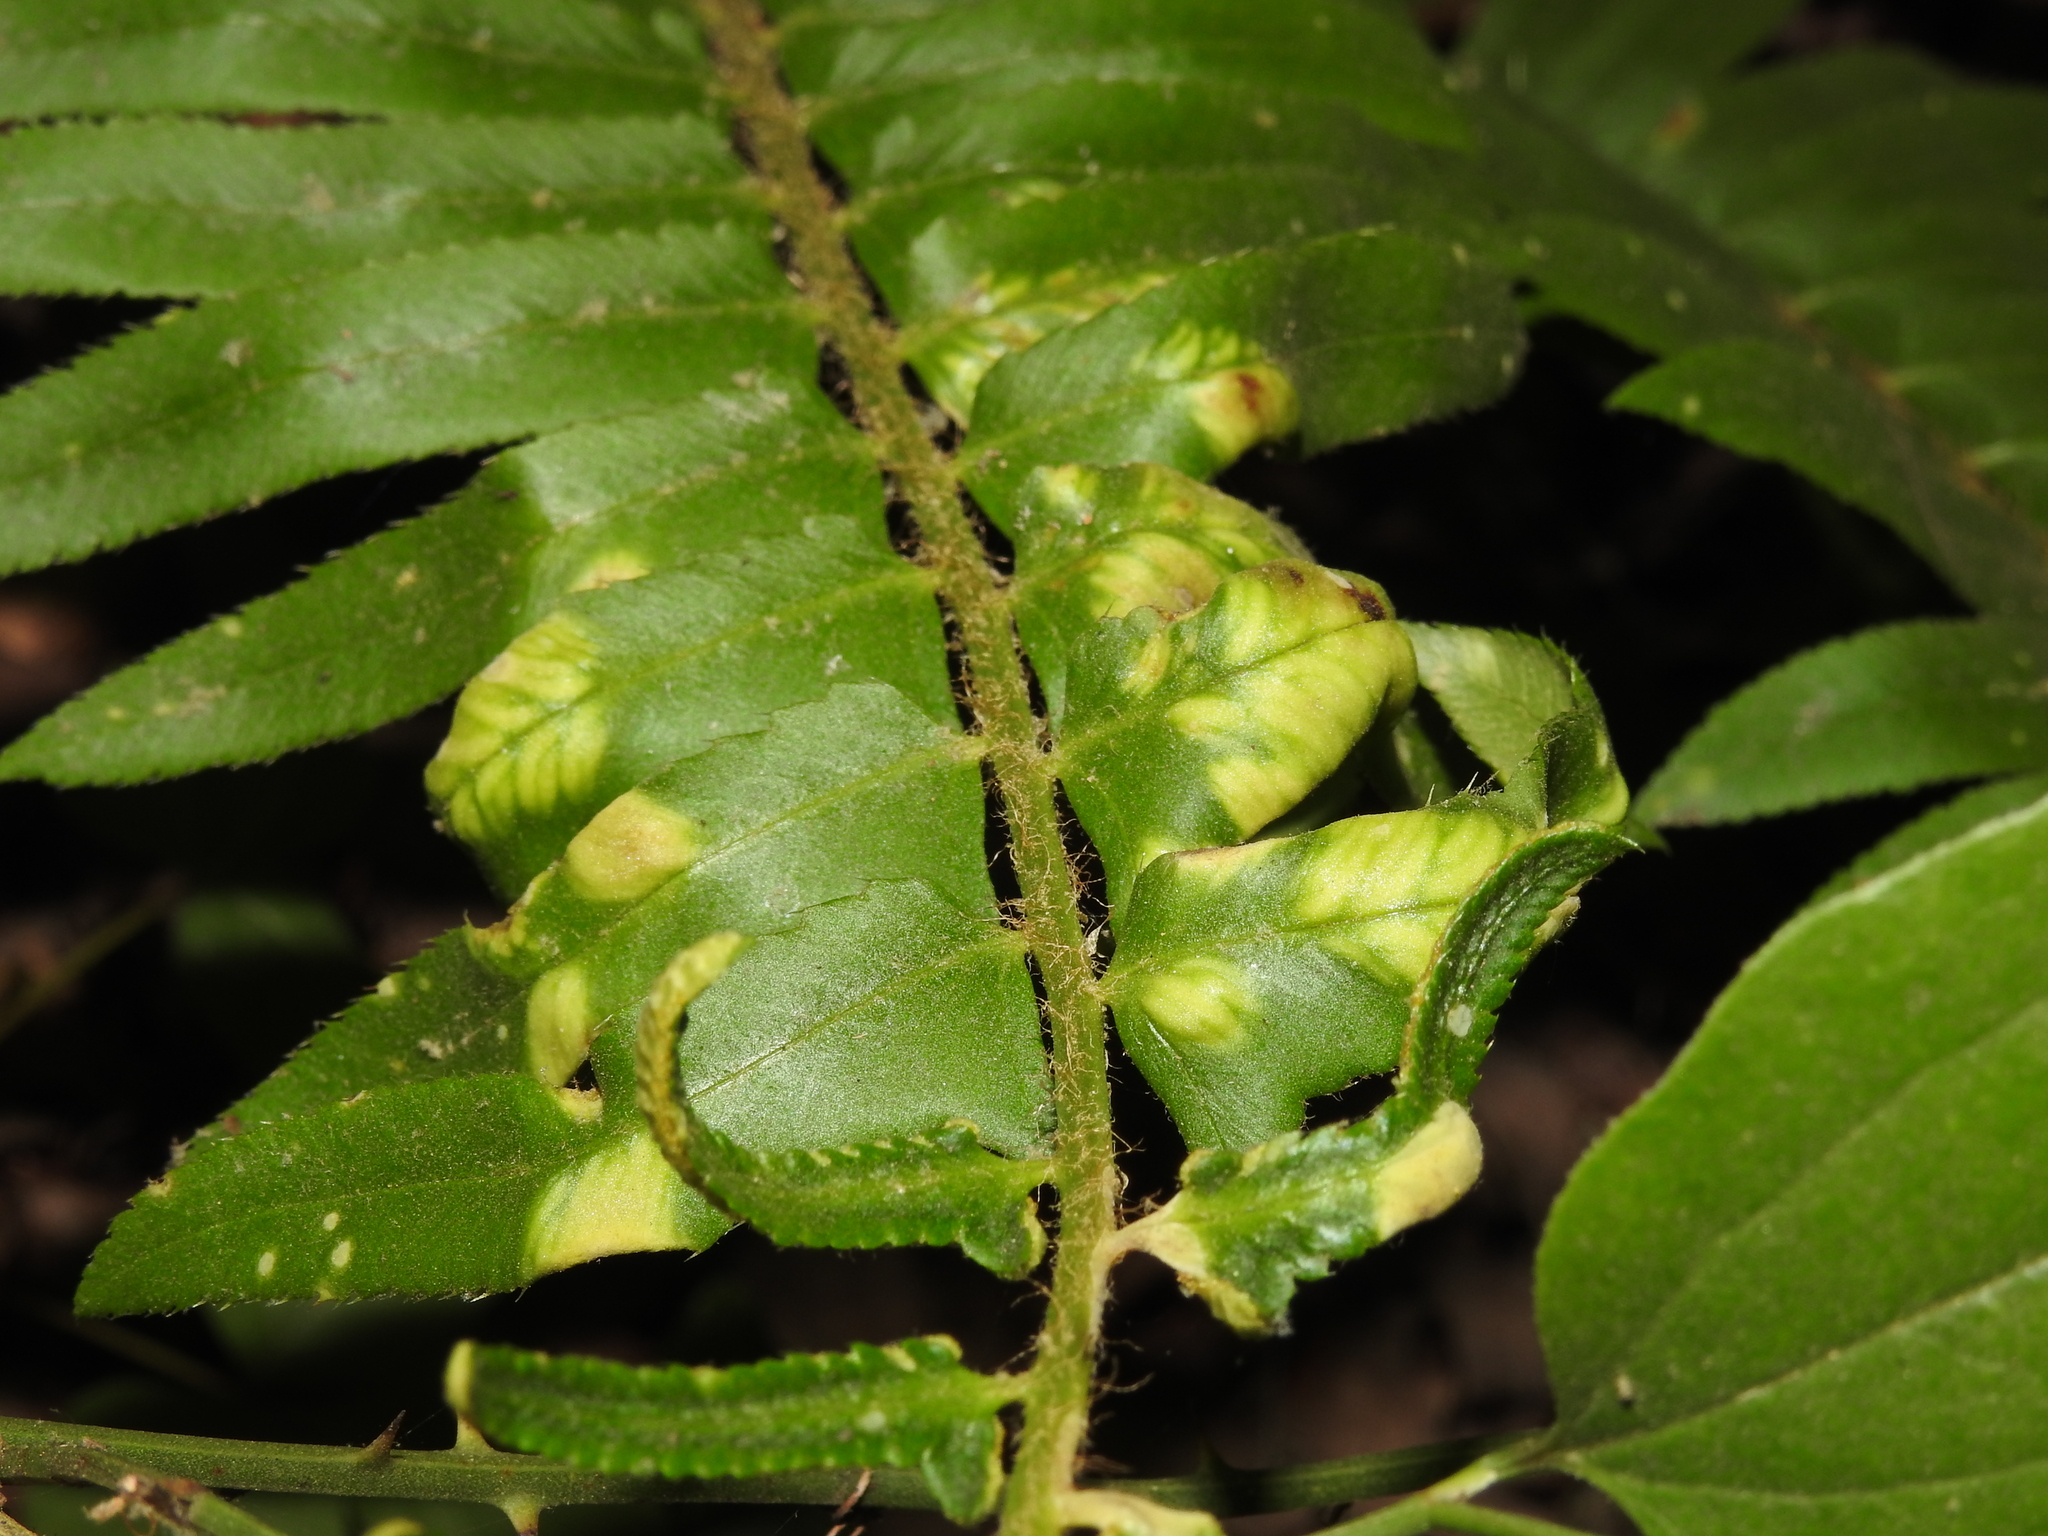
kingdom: Fungi
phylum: Ascomycota
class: Taphrinomycetes
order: Taphrinales
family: Taphrinaceae
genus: Taphrina
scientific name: Taphrina polystichi
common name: Christmas fern leaf curl
